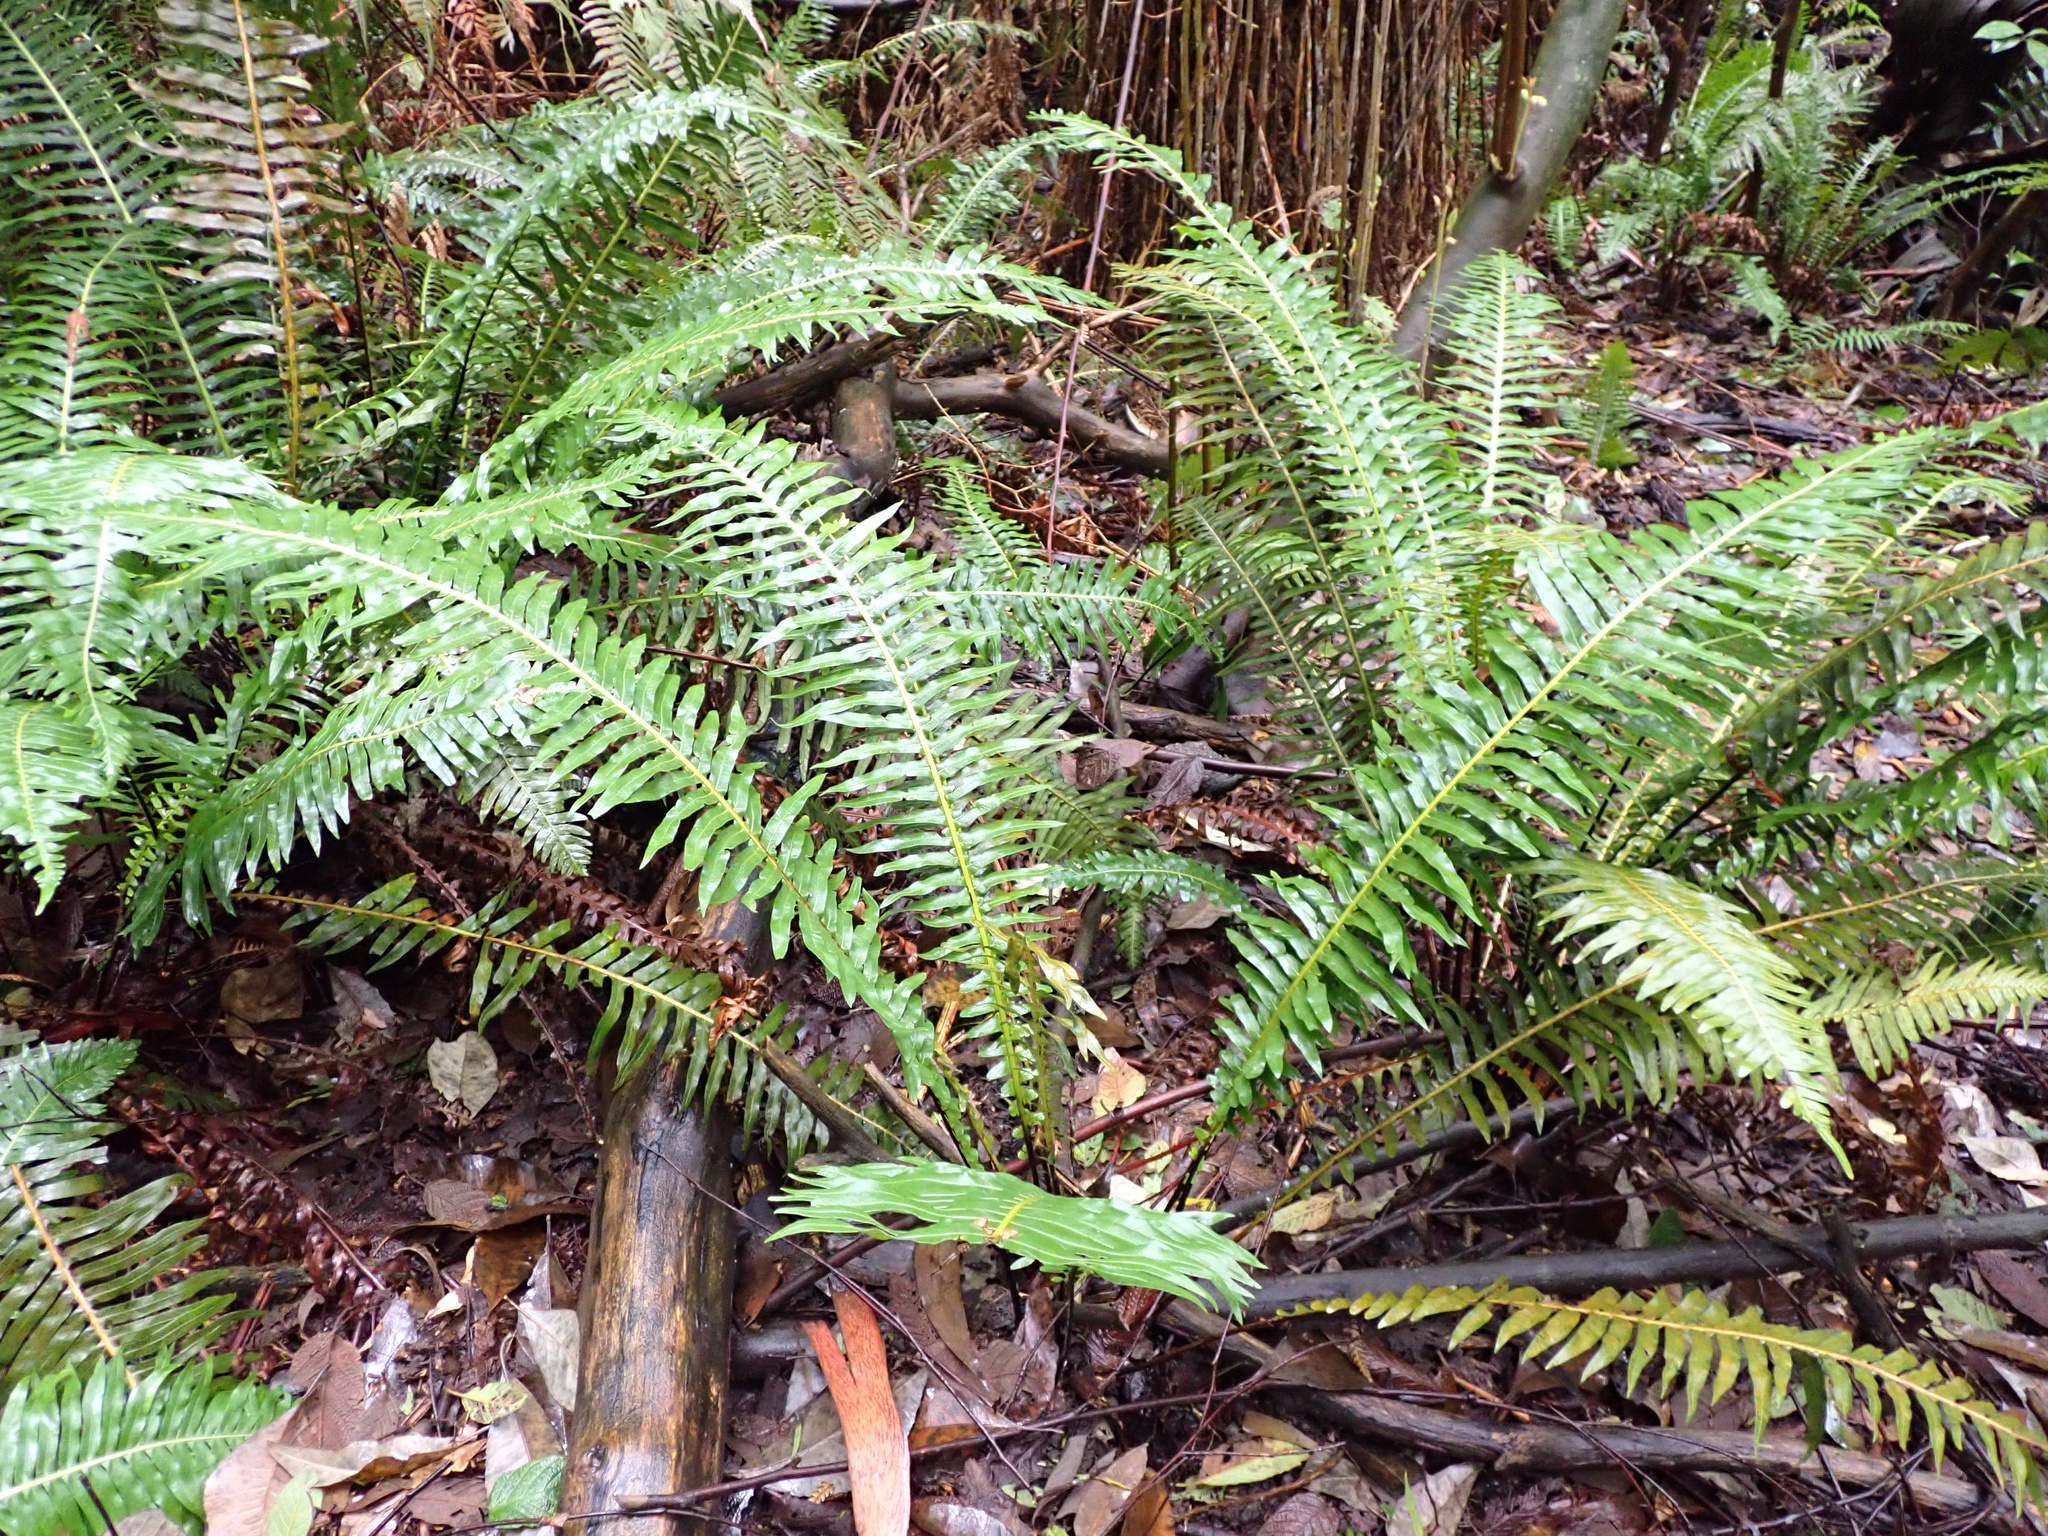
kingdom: Plantae
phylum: Tracheophyta
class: Polypodiopsida
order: Polypodiales
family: Blechnaceae
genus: Lomaria
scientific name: Lomaria nuda
